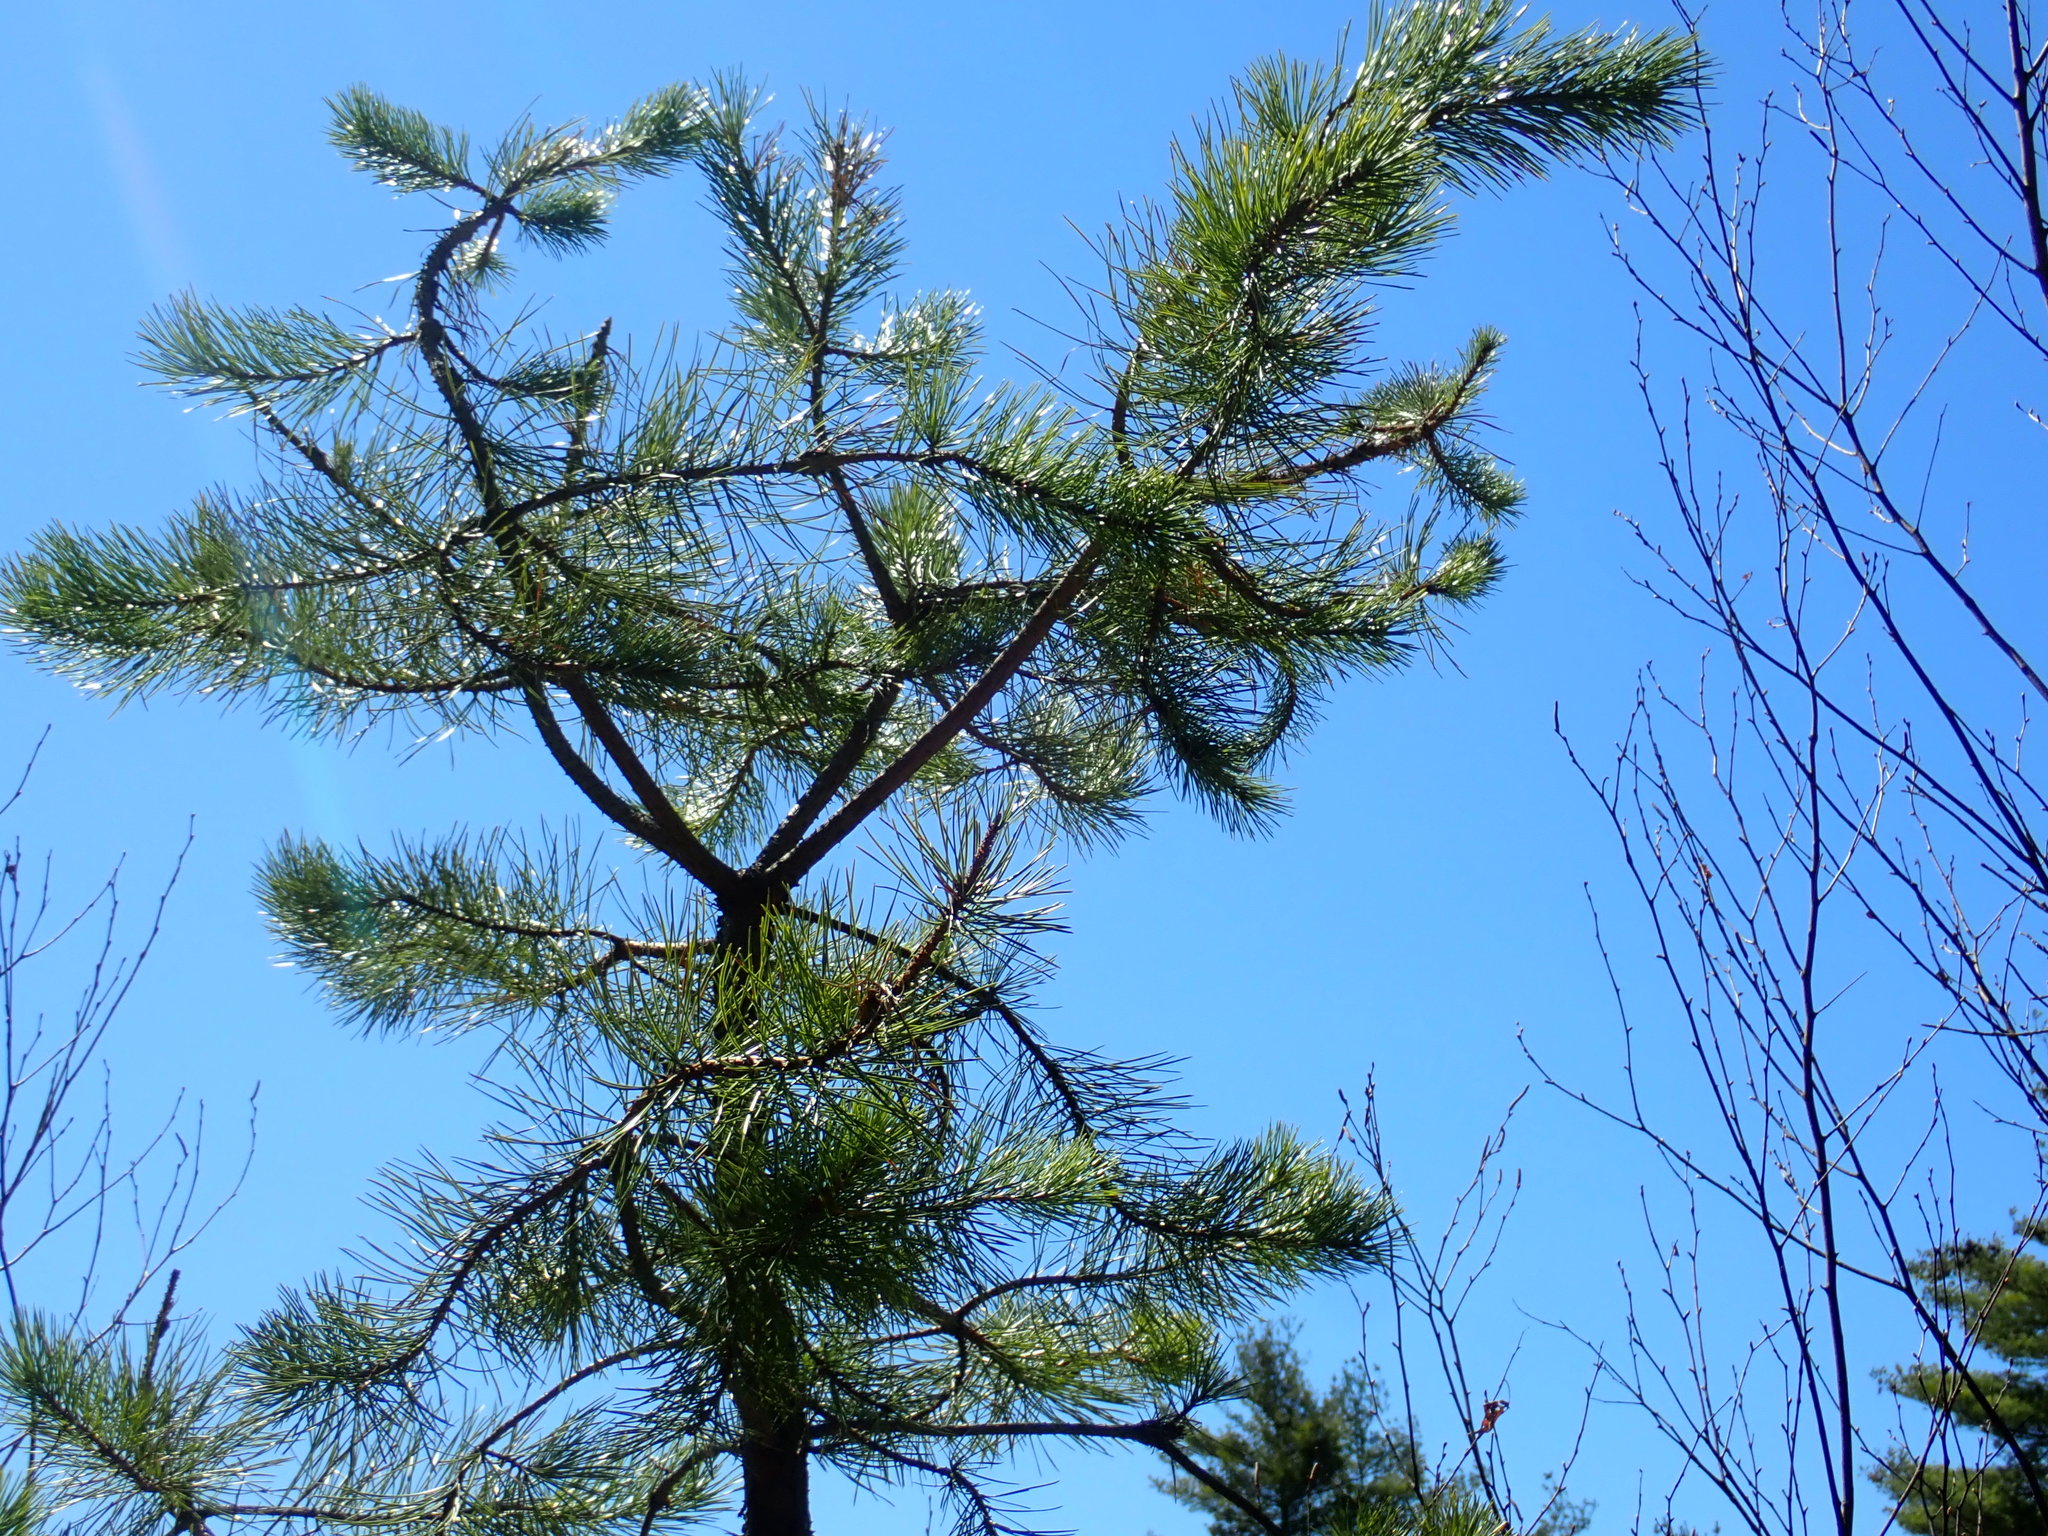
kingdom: Plantae
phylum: Tracheophyta
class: Pinopsida
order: Pinales
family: Pinaceae
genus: Pinus
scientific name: Pinus rigida
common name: Pitch pine
